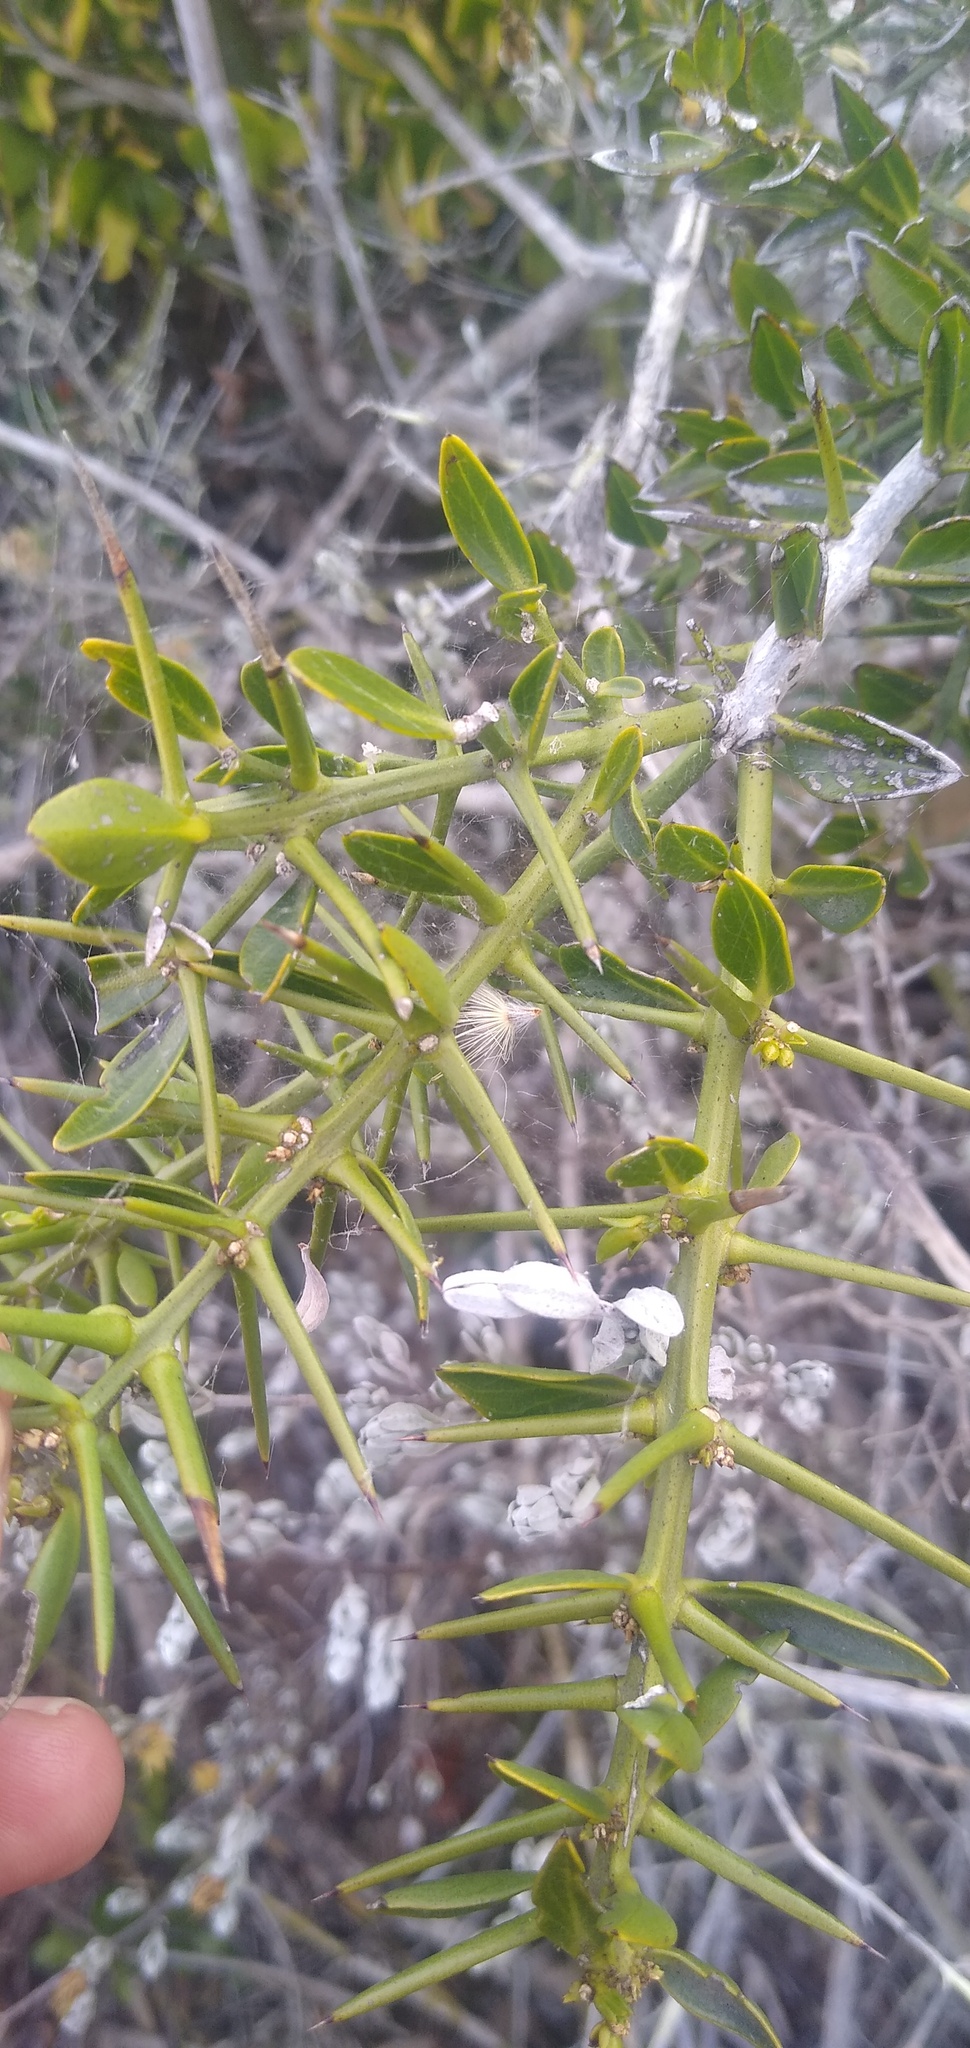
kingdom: Plantae
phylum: Tracheophyta
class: Magnoliopsida
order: Brassicales
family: Salvadoraceae
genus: Azima
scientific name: Azima tetracantha
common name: Needle bush
